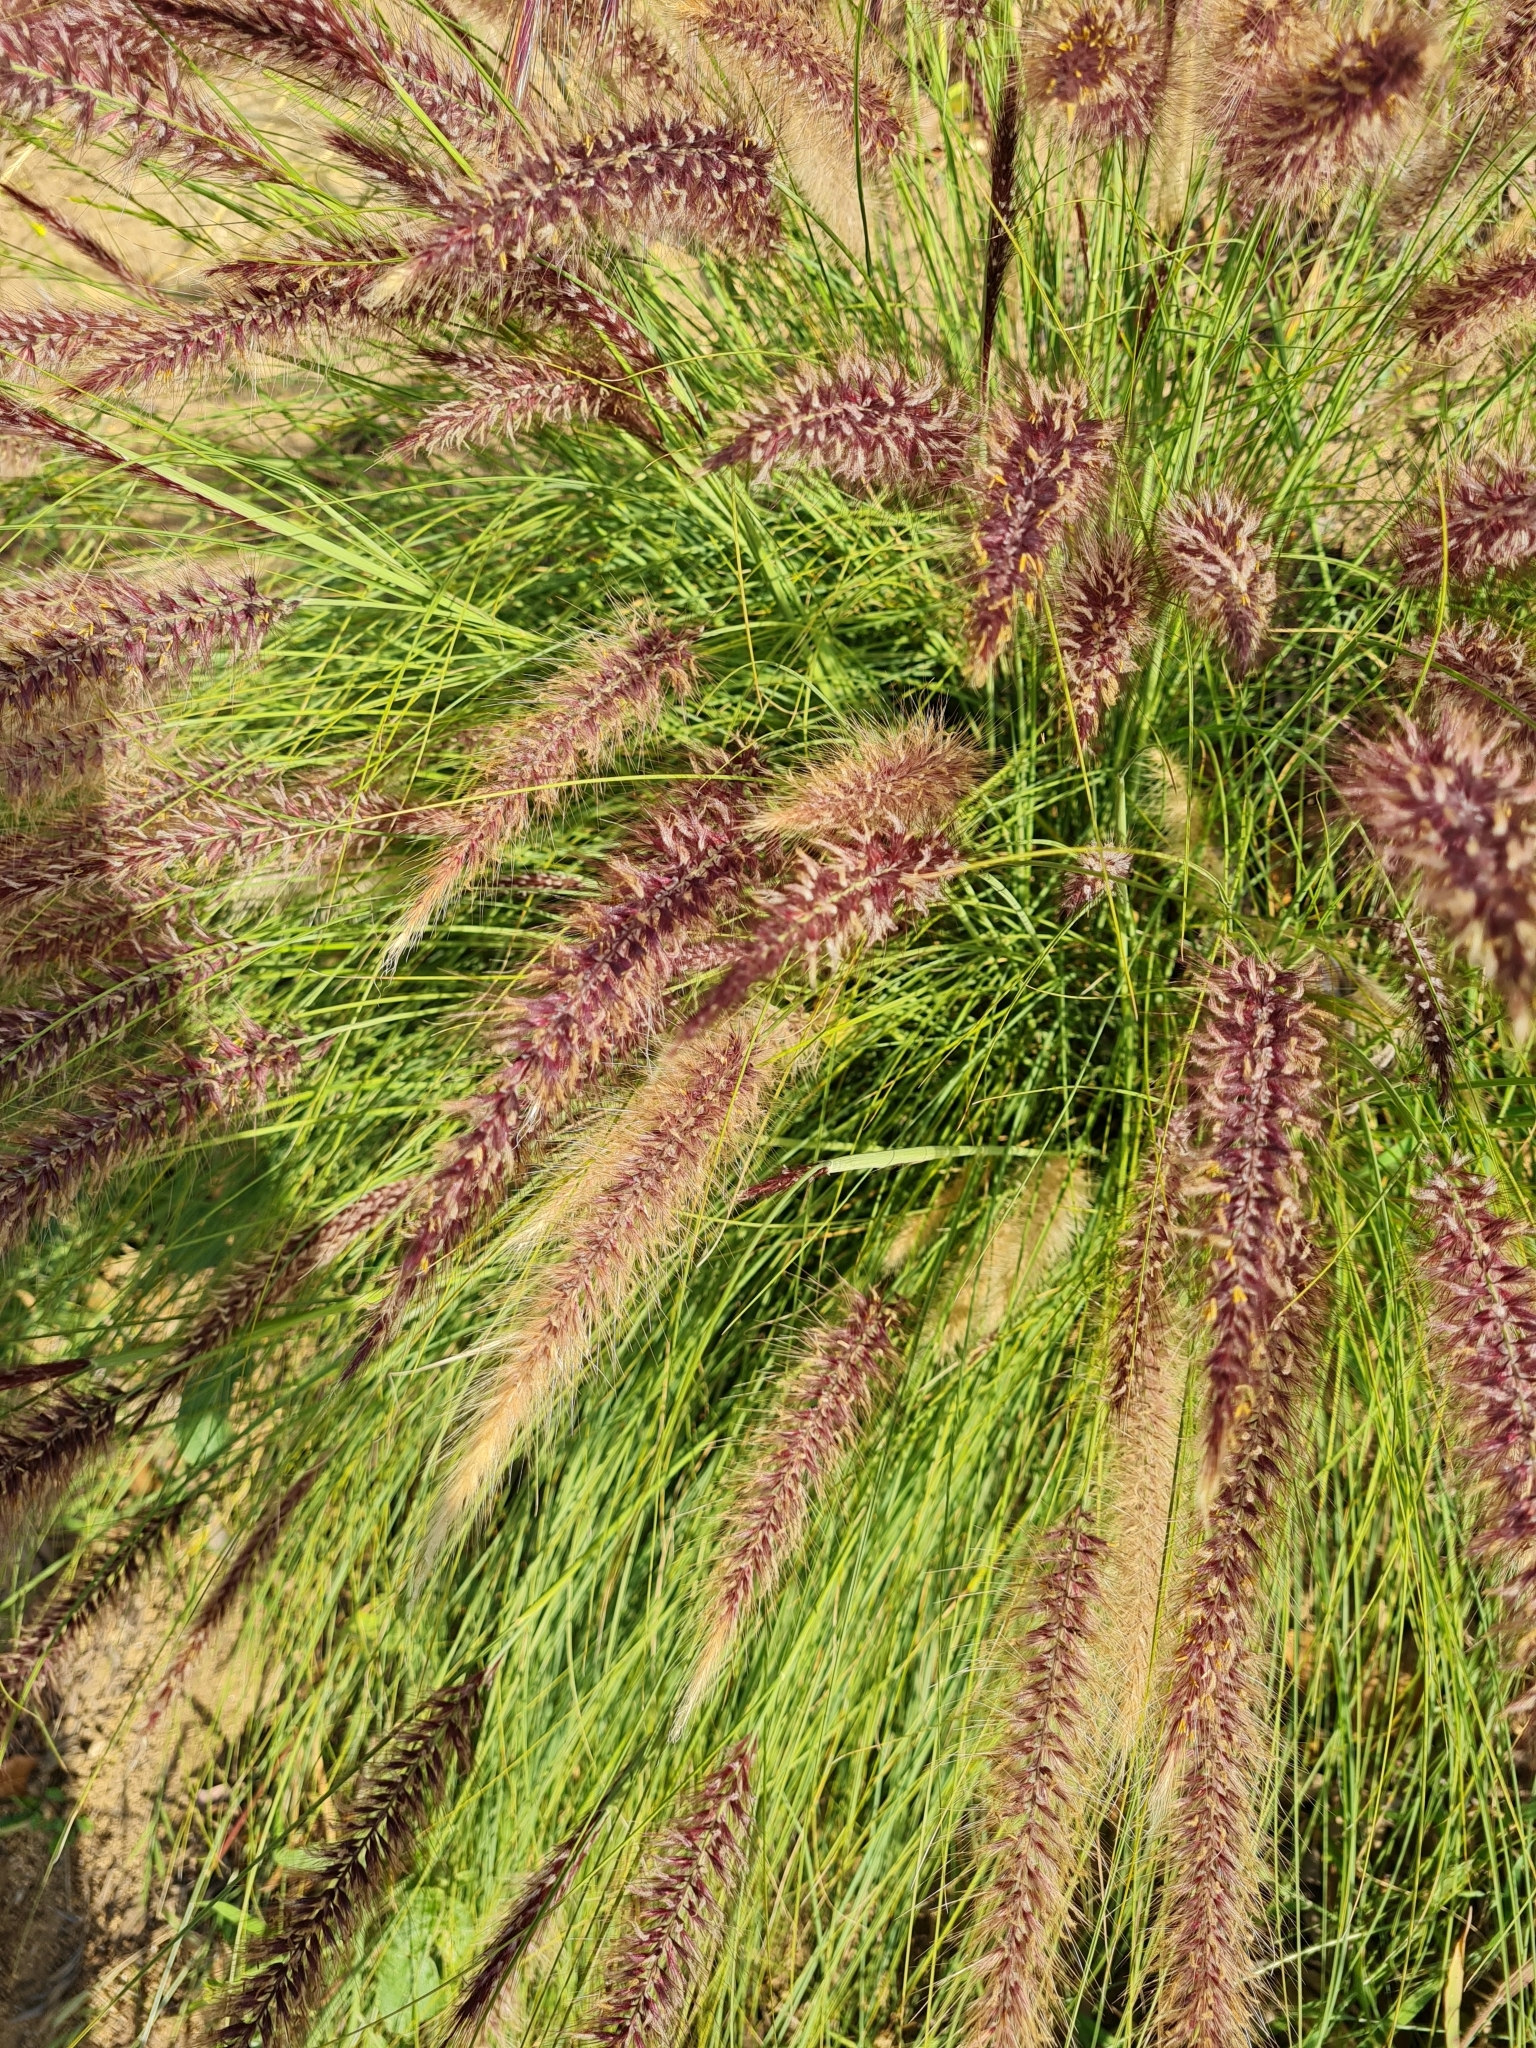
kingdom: Plantae
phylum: Tracheophyta
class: Liliopsida
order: Poales
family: Poaceae
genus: Cenchrus
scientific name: Cenchrus setaceus
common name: Crimson fountaingrass
